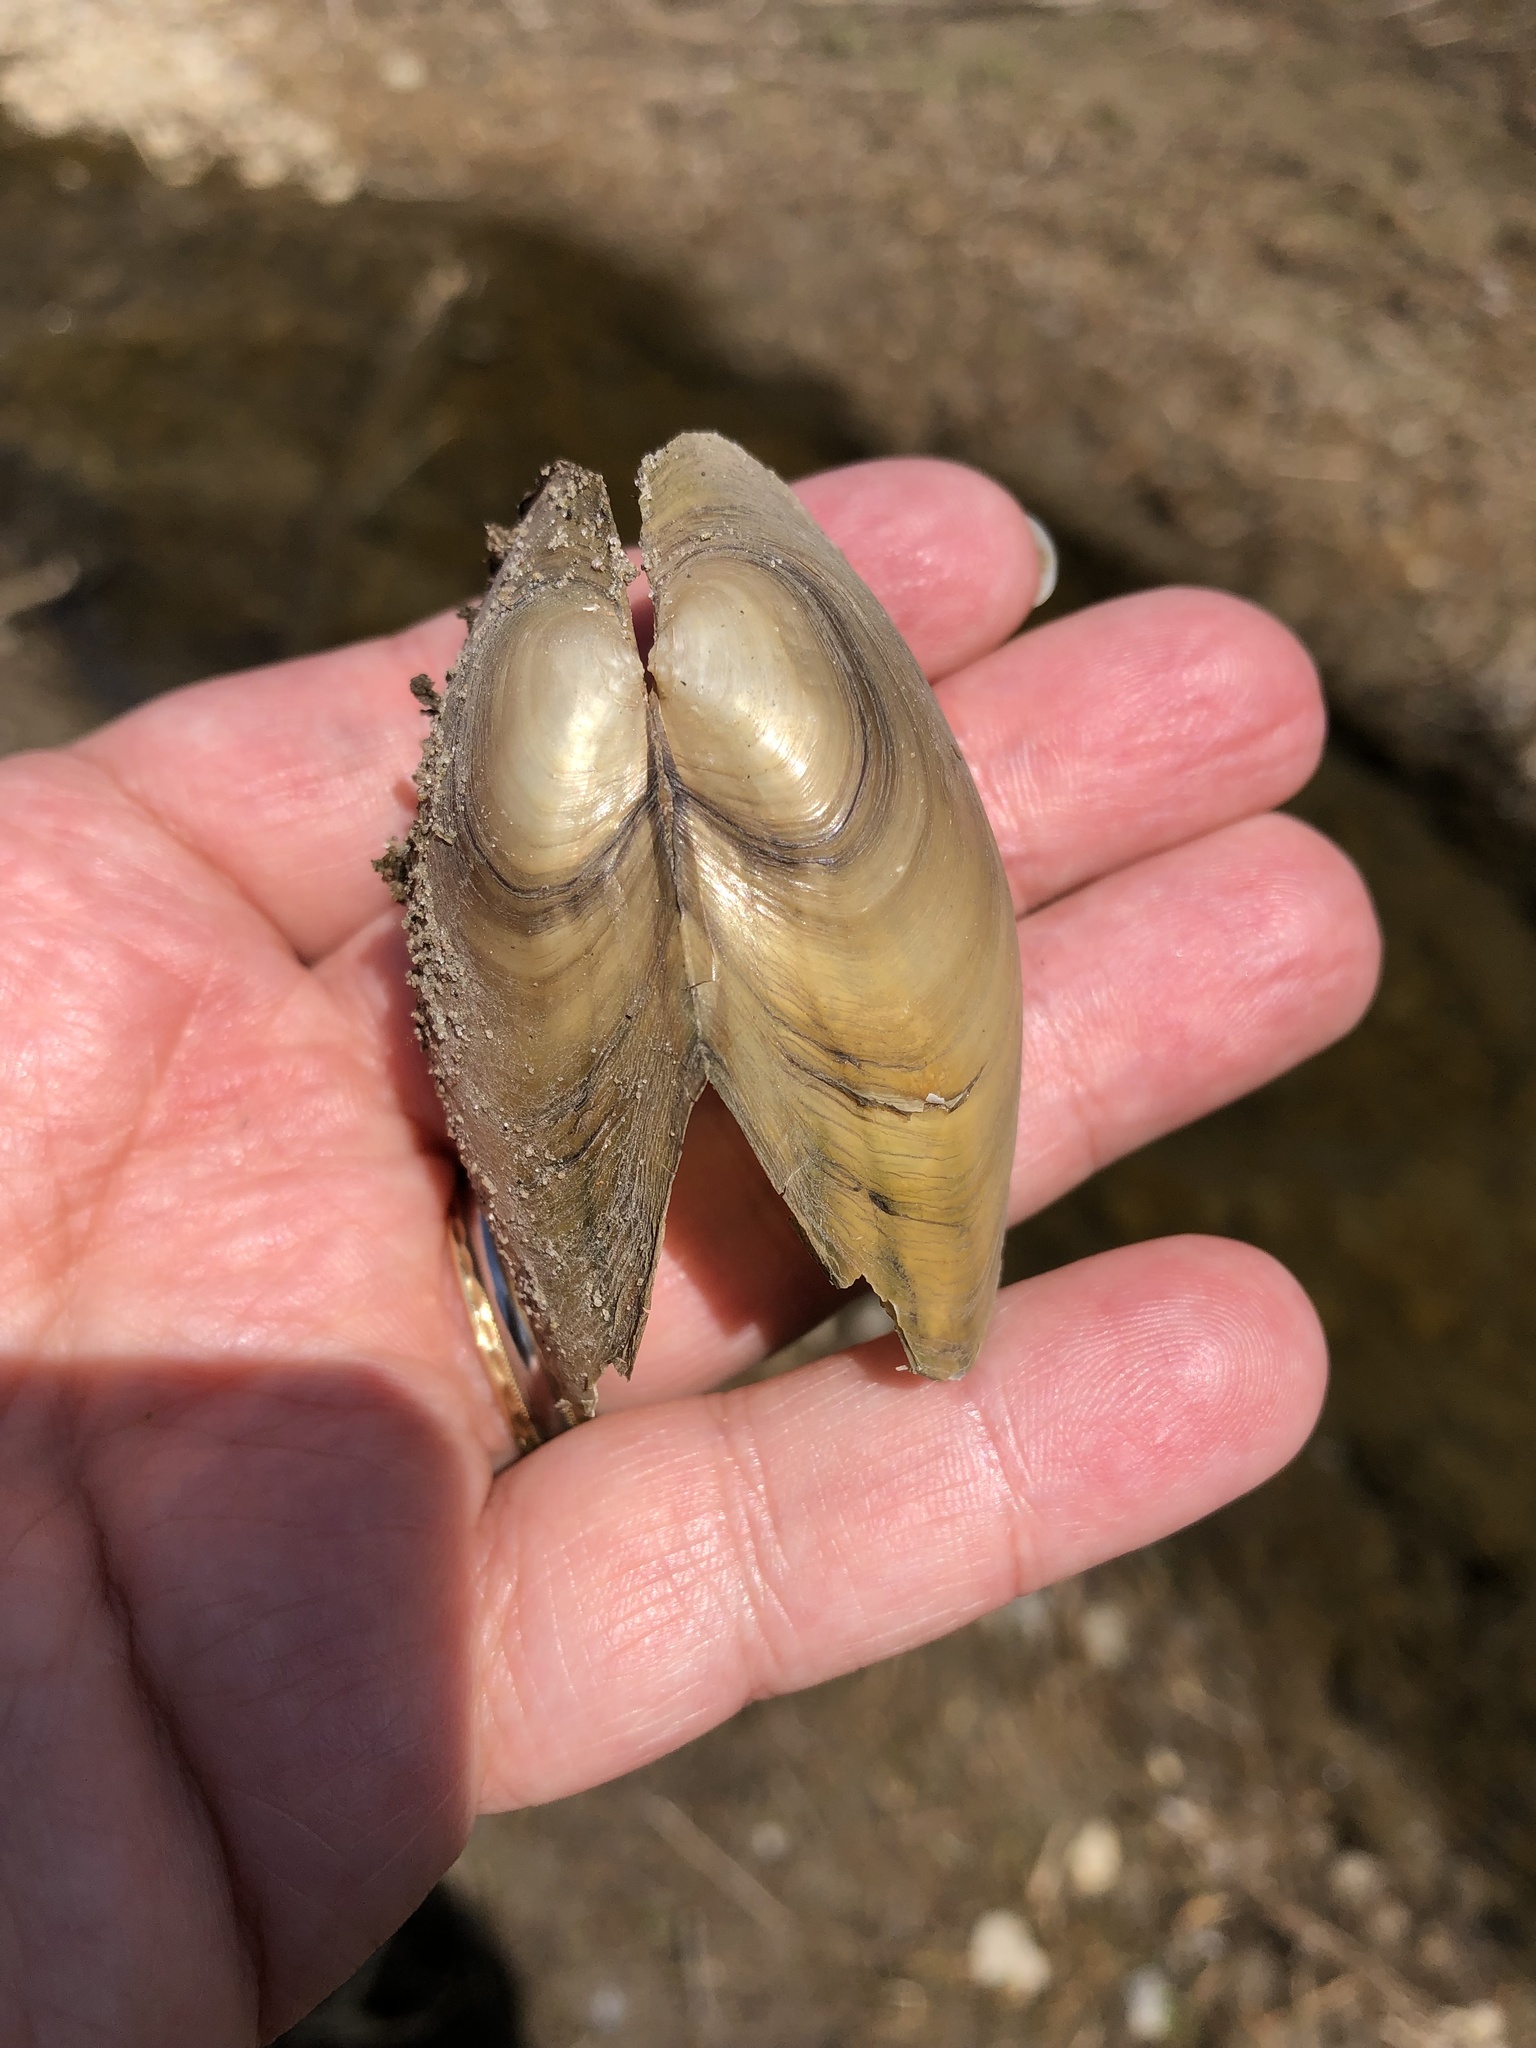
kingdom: Animalia
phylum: Mollusca
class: Bivalvia
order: Unionida
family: Unionidae
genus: Pyganodon
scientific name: Pyganodon grandis
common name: Giant floater
